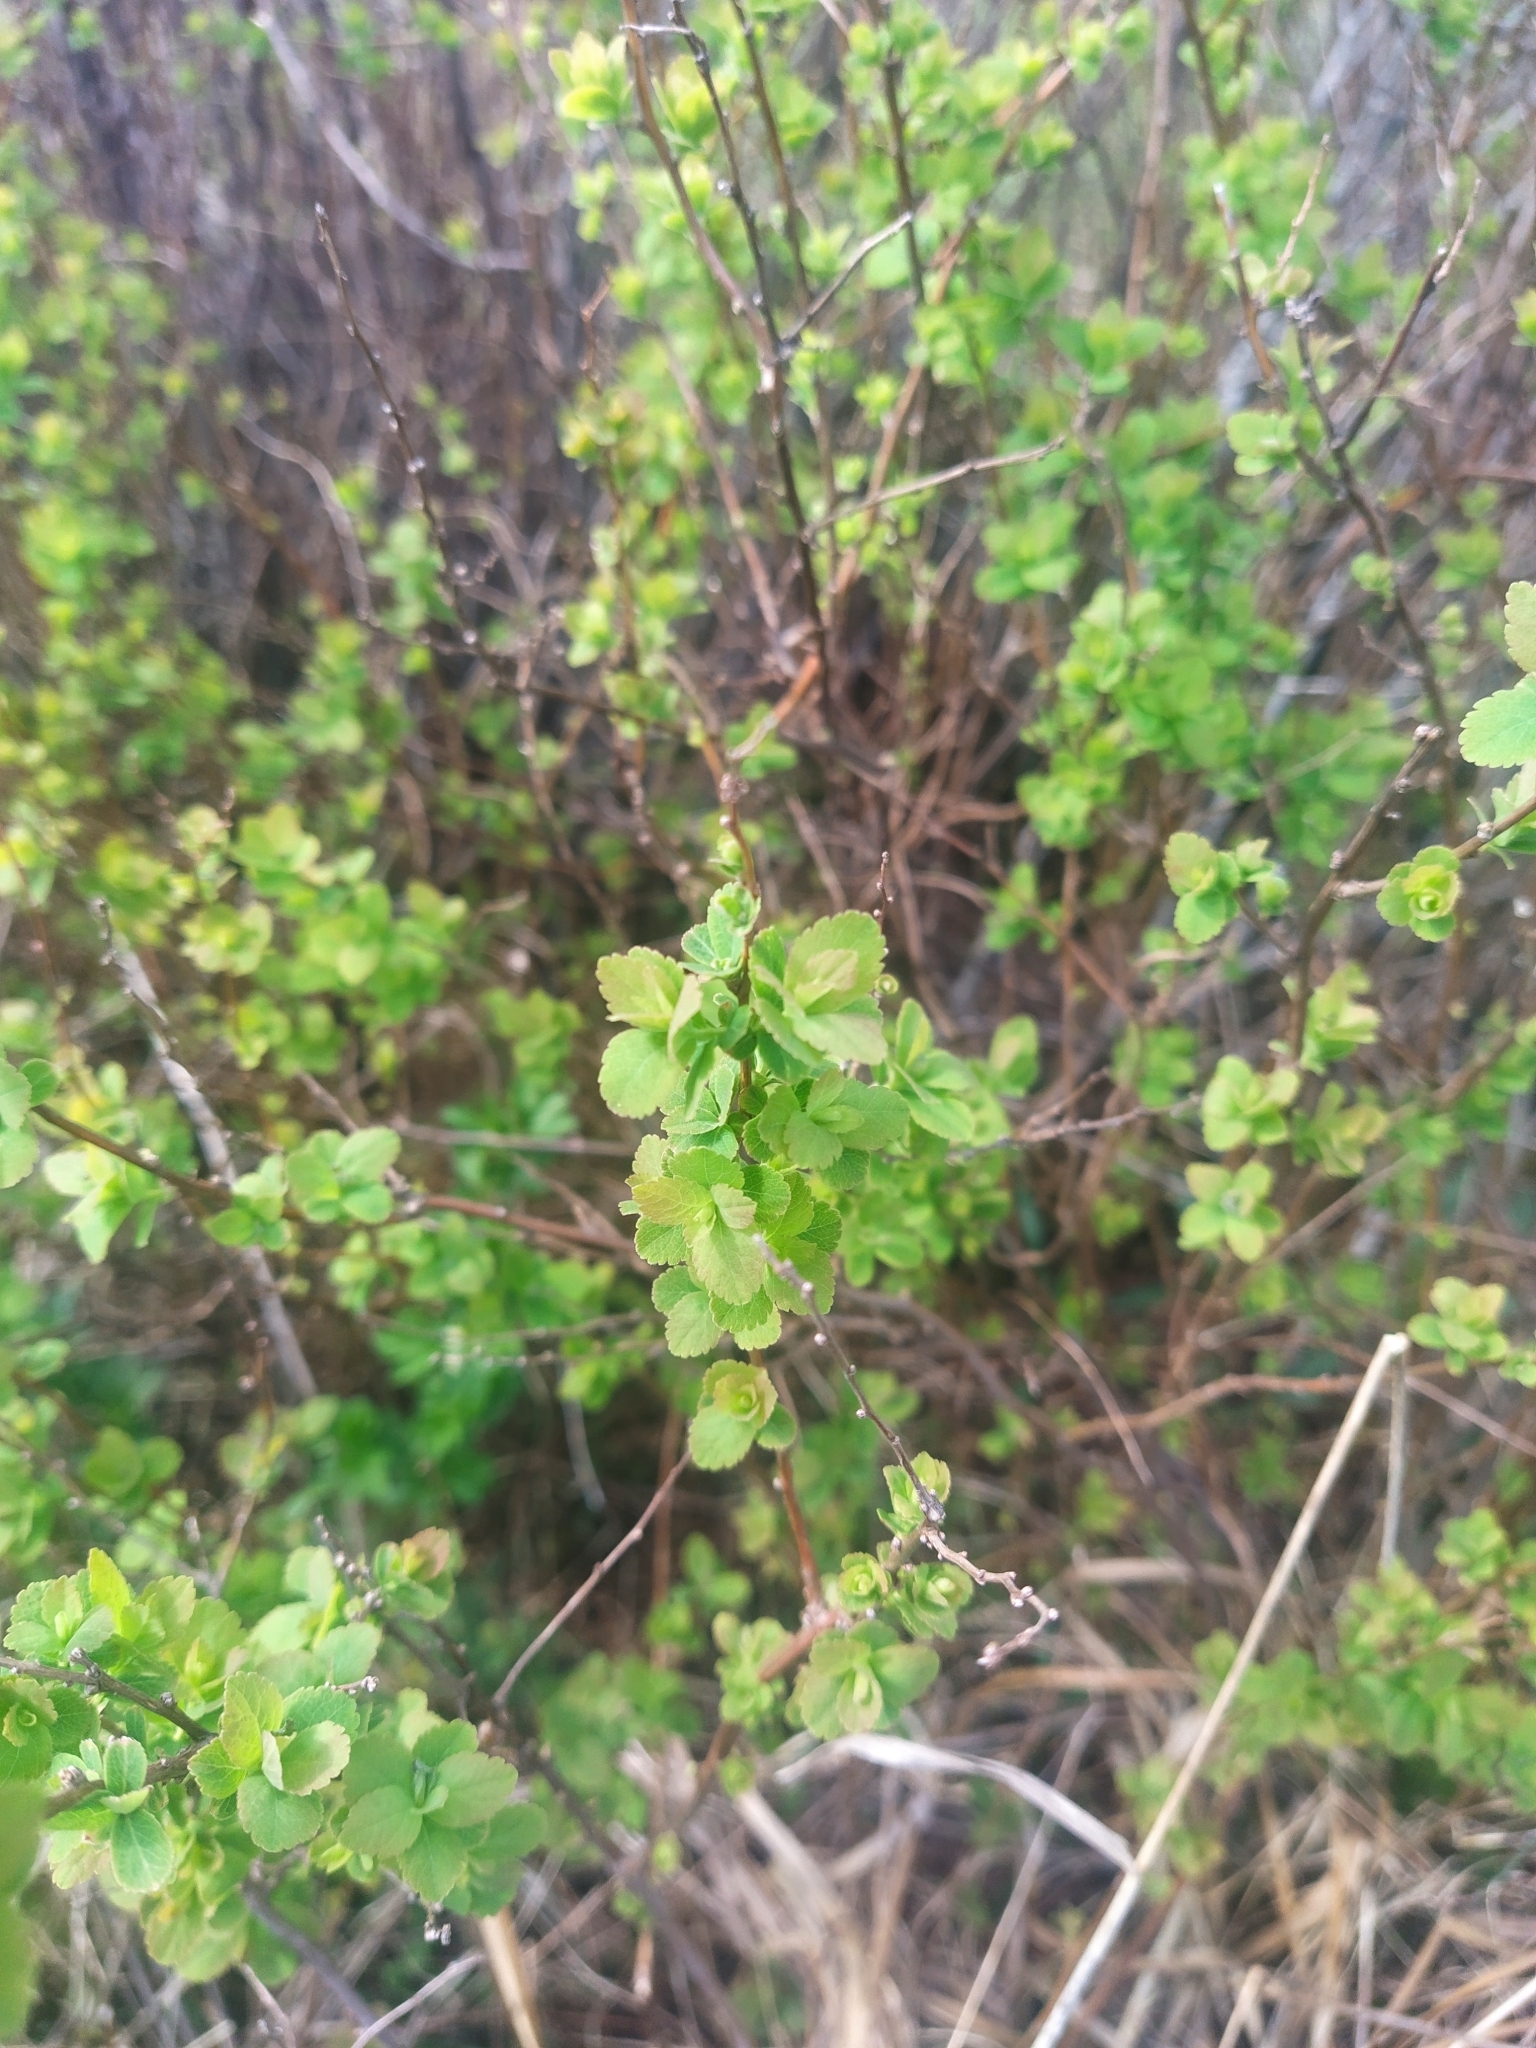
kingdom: Plantae
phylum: Tracheophyta
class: Magnoliopsida
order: Rosales
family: Rosaceae
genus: Spiraea
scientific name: Spiraea alba
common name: Pale bridewort
